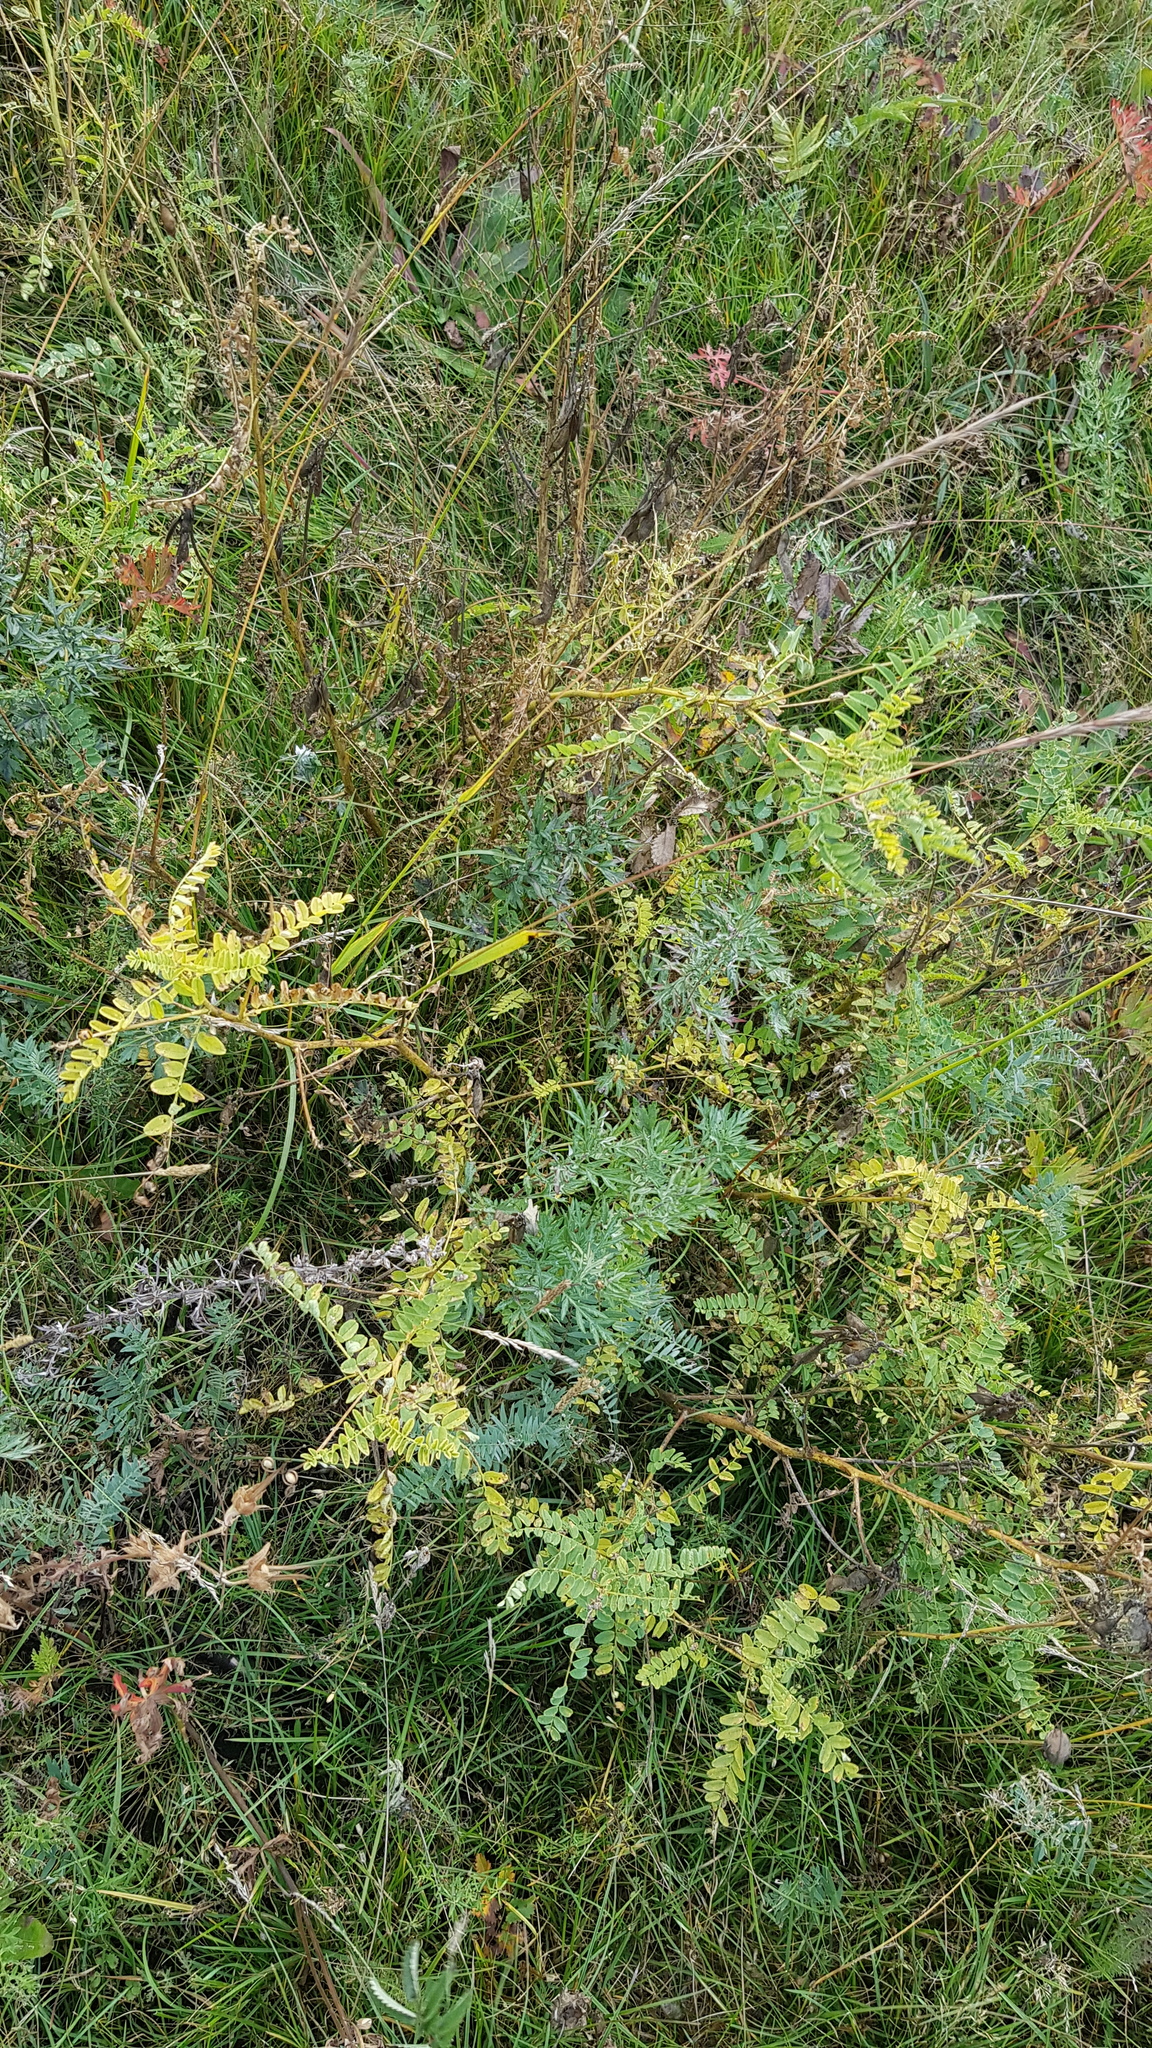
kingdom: Plantae
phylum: Tracheophyta
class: Magnoliopsida
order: Fabales
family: Fabaceae
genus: Vicia
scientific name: Vicia cracca
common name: Bird vetch
